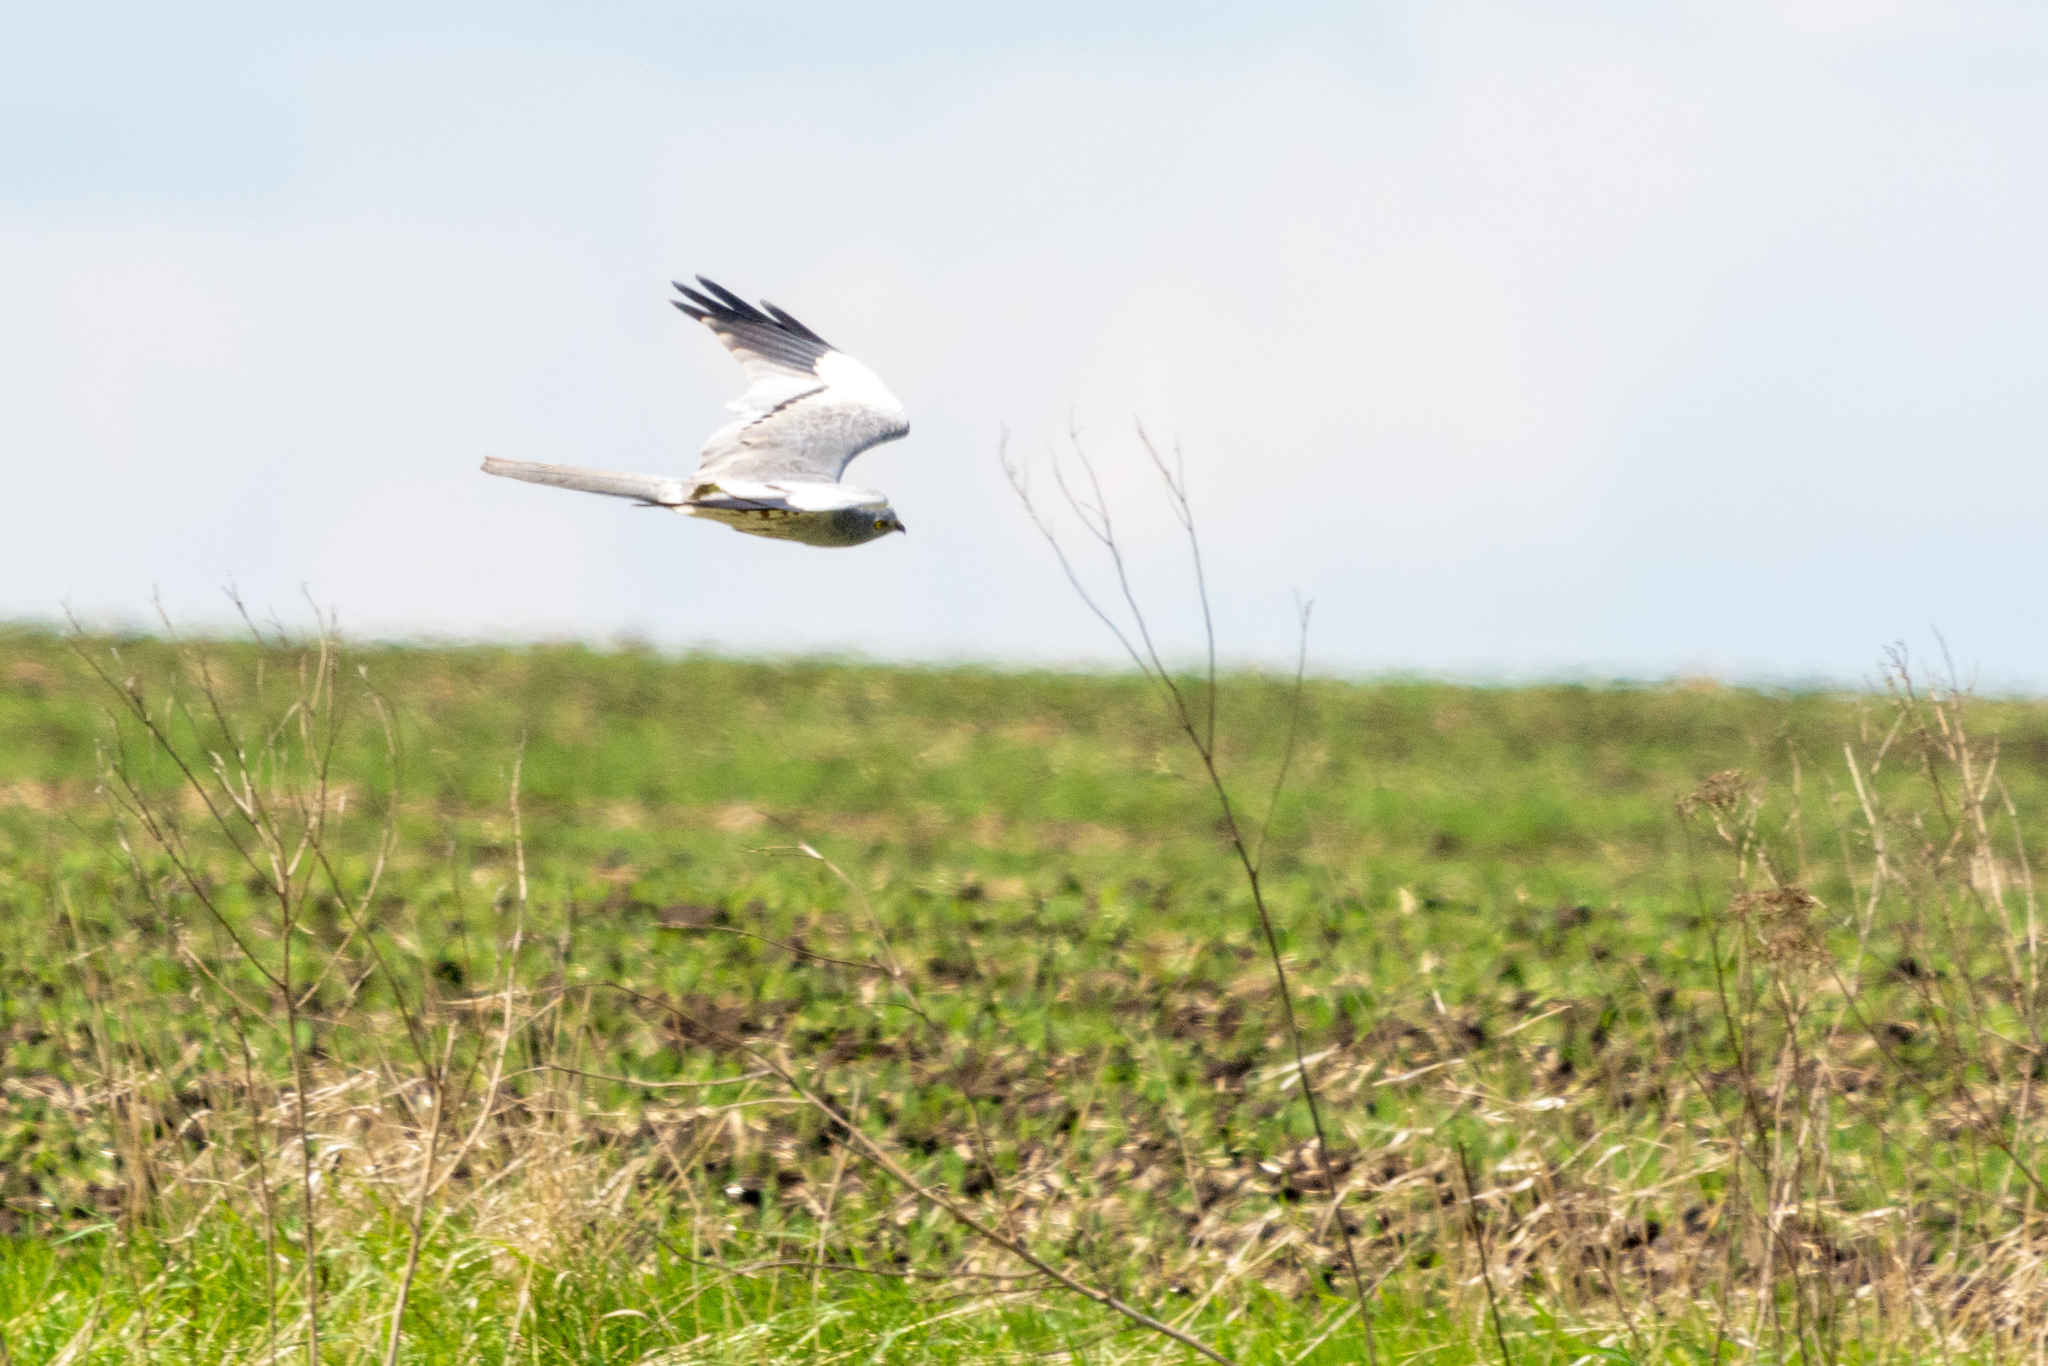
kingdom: Animalia
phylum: Chordata
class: Aves
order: Accipitriformes
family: Accipitridae
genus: Circus
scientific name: Circus pygargus
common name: Montagu's harrier
